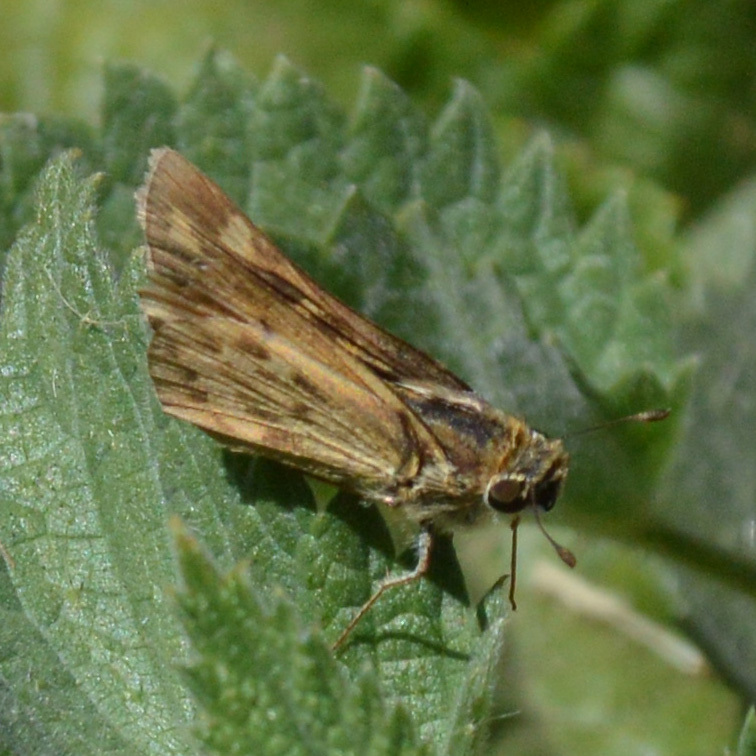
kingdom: Animalia
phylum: Arthropoda
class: Insecta
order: Lepidoptera
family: Hesperiidae
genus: Hylephila
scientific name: Hylephila phyleus
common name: Fiery skipper
